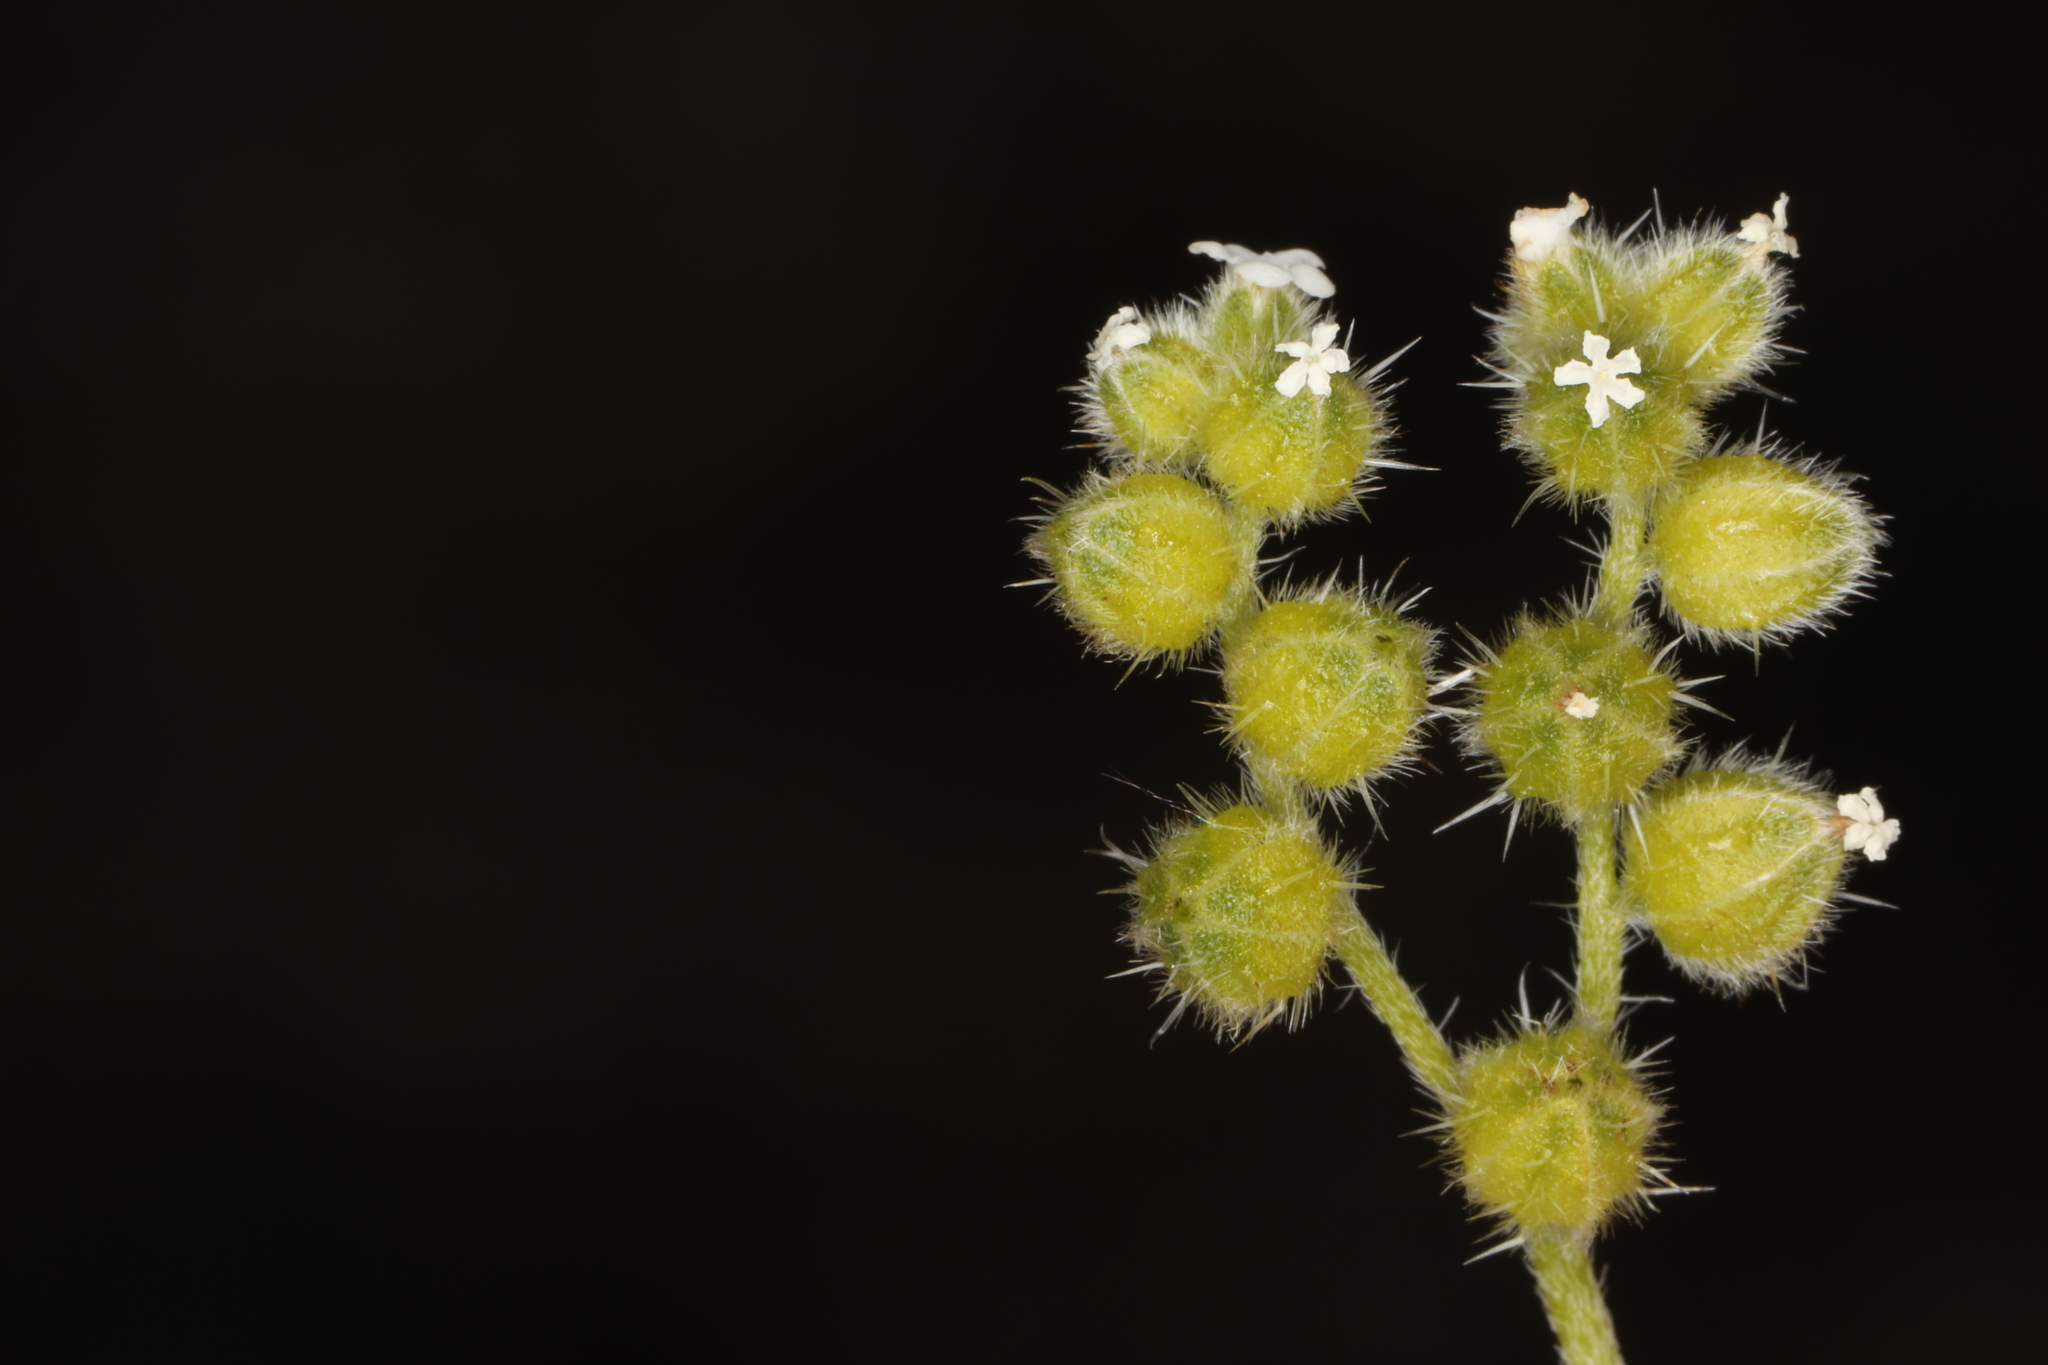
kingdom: Plantae
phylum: Tracheophyta
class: Magnoliopsida
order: Boraginales
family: Boraginaceae
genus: Cryptantha
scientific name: Cryptantha pterocarya
